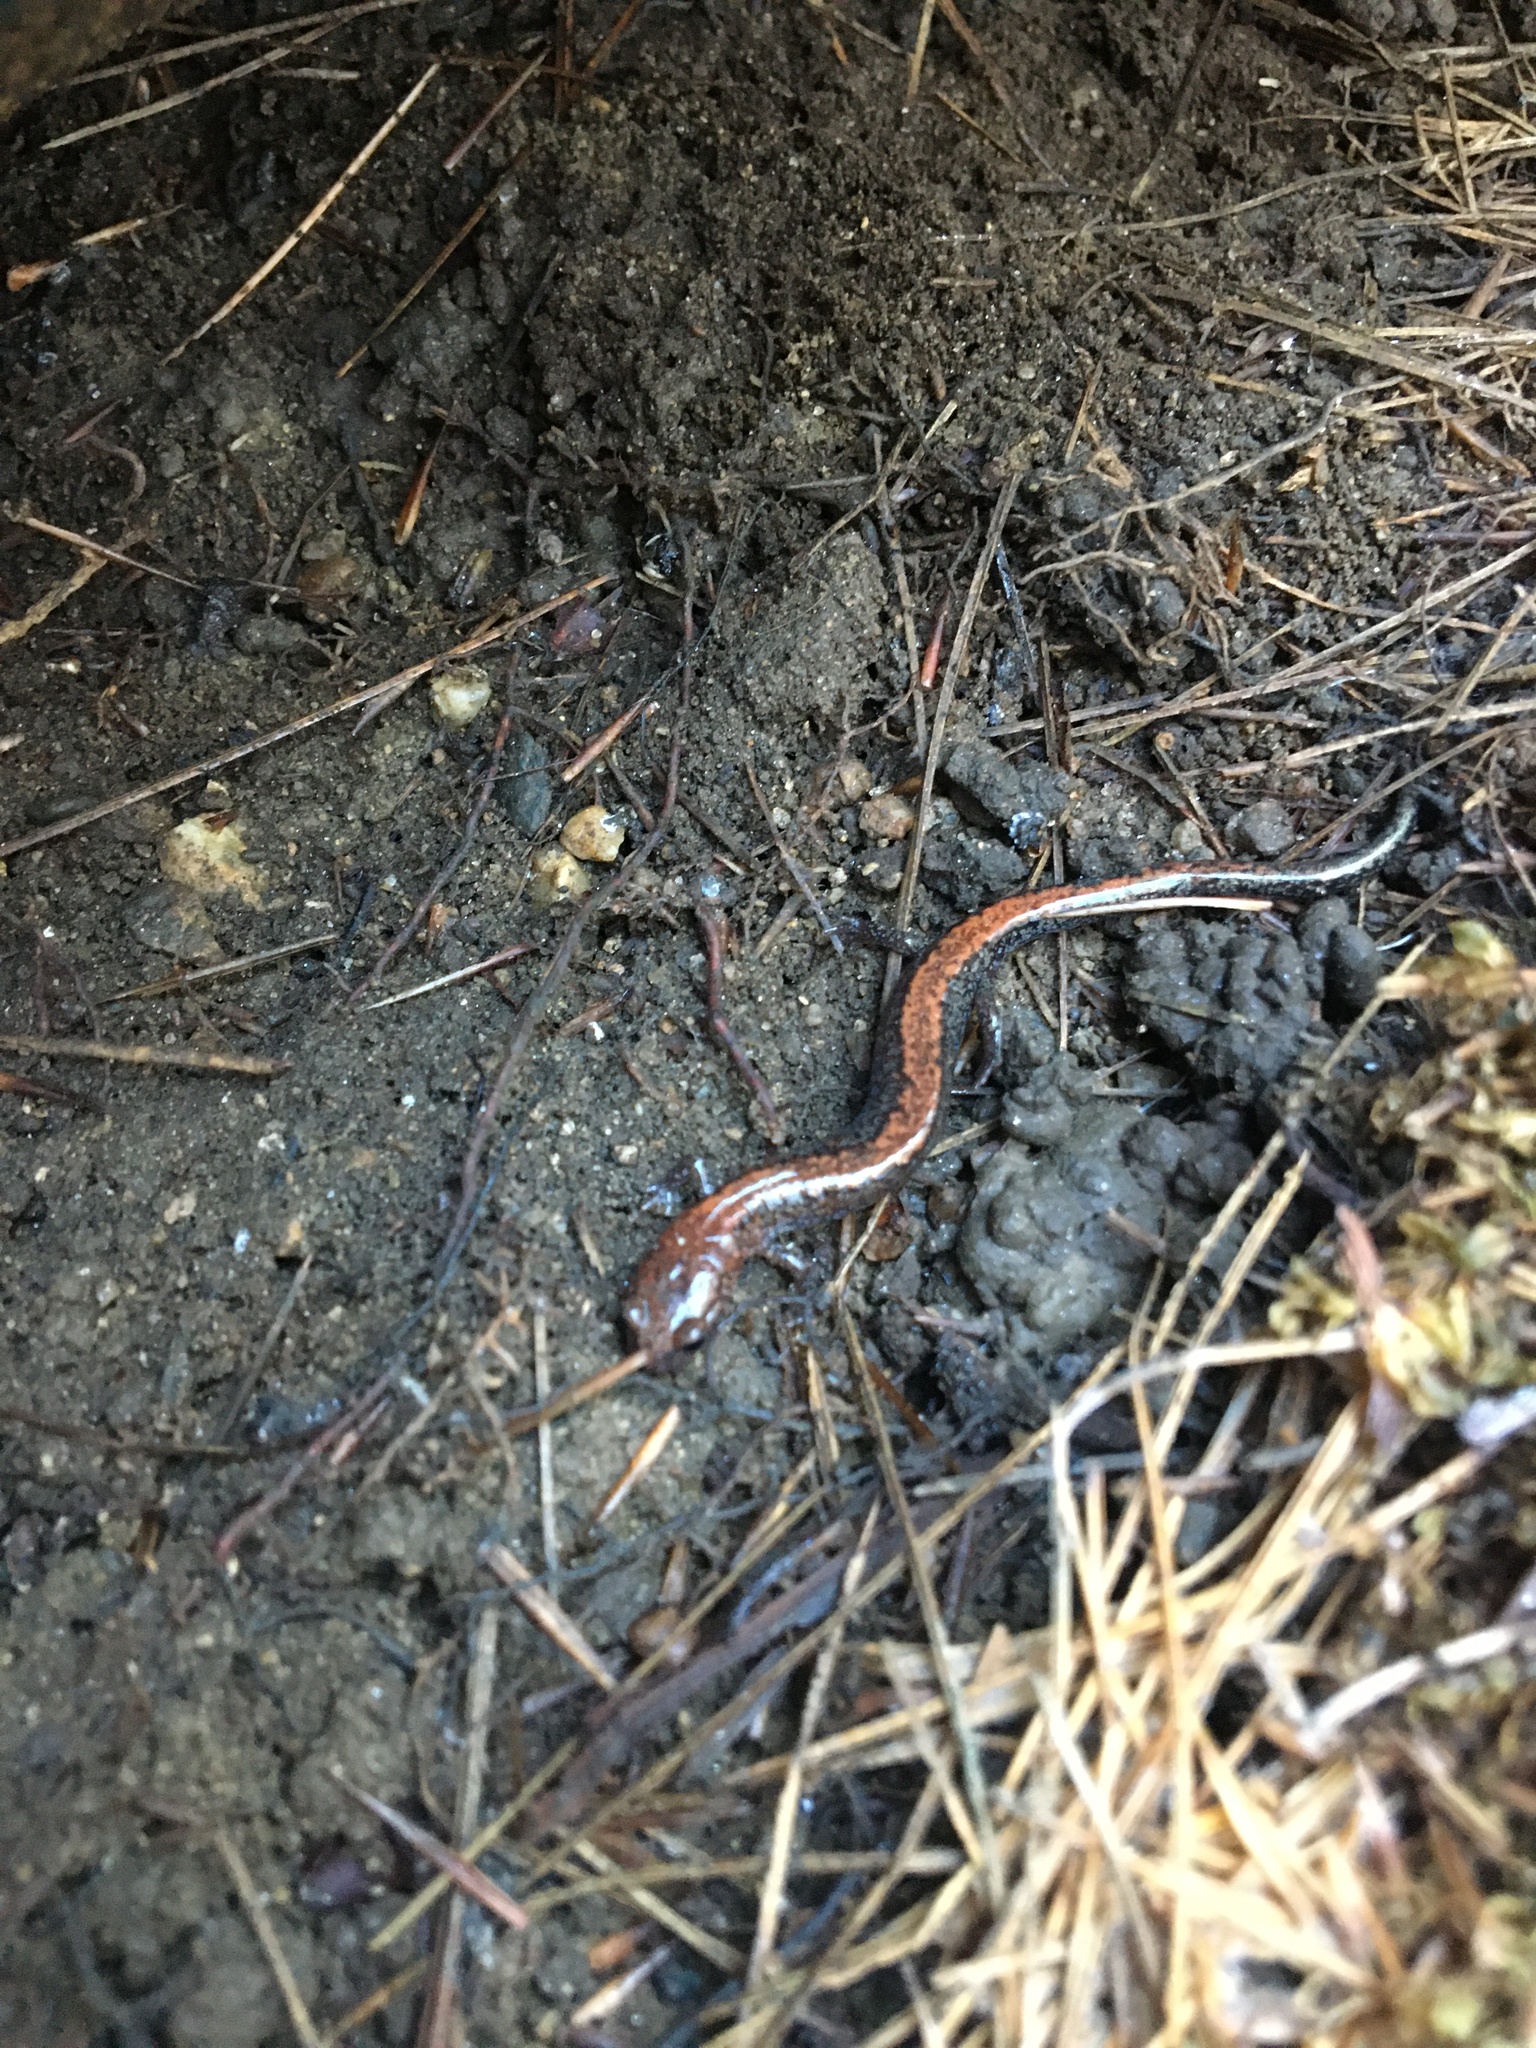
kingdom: Animalia
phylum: Chordata
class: Amphibia
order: Caudata
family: Plethodontidae
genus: Plethodon
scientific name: Plethodon cinereus
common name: Redback salamander
